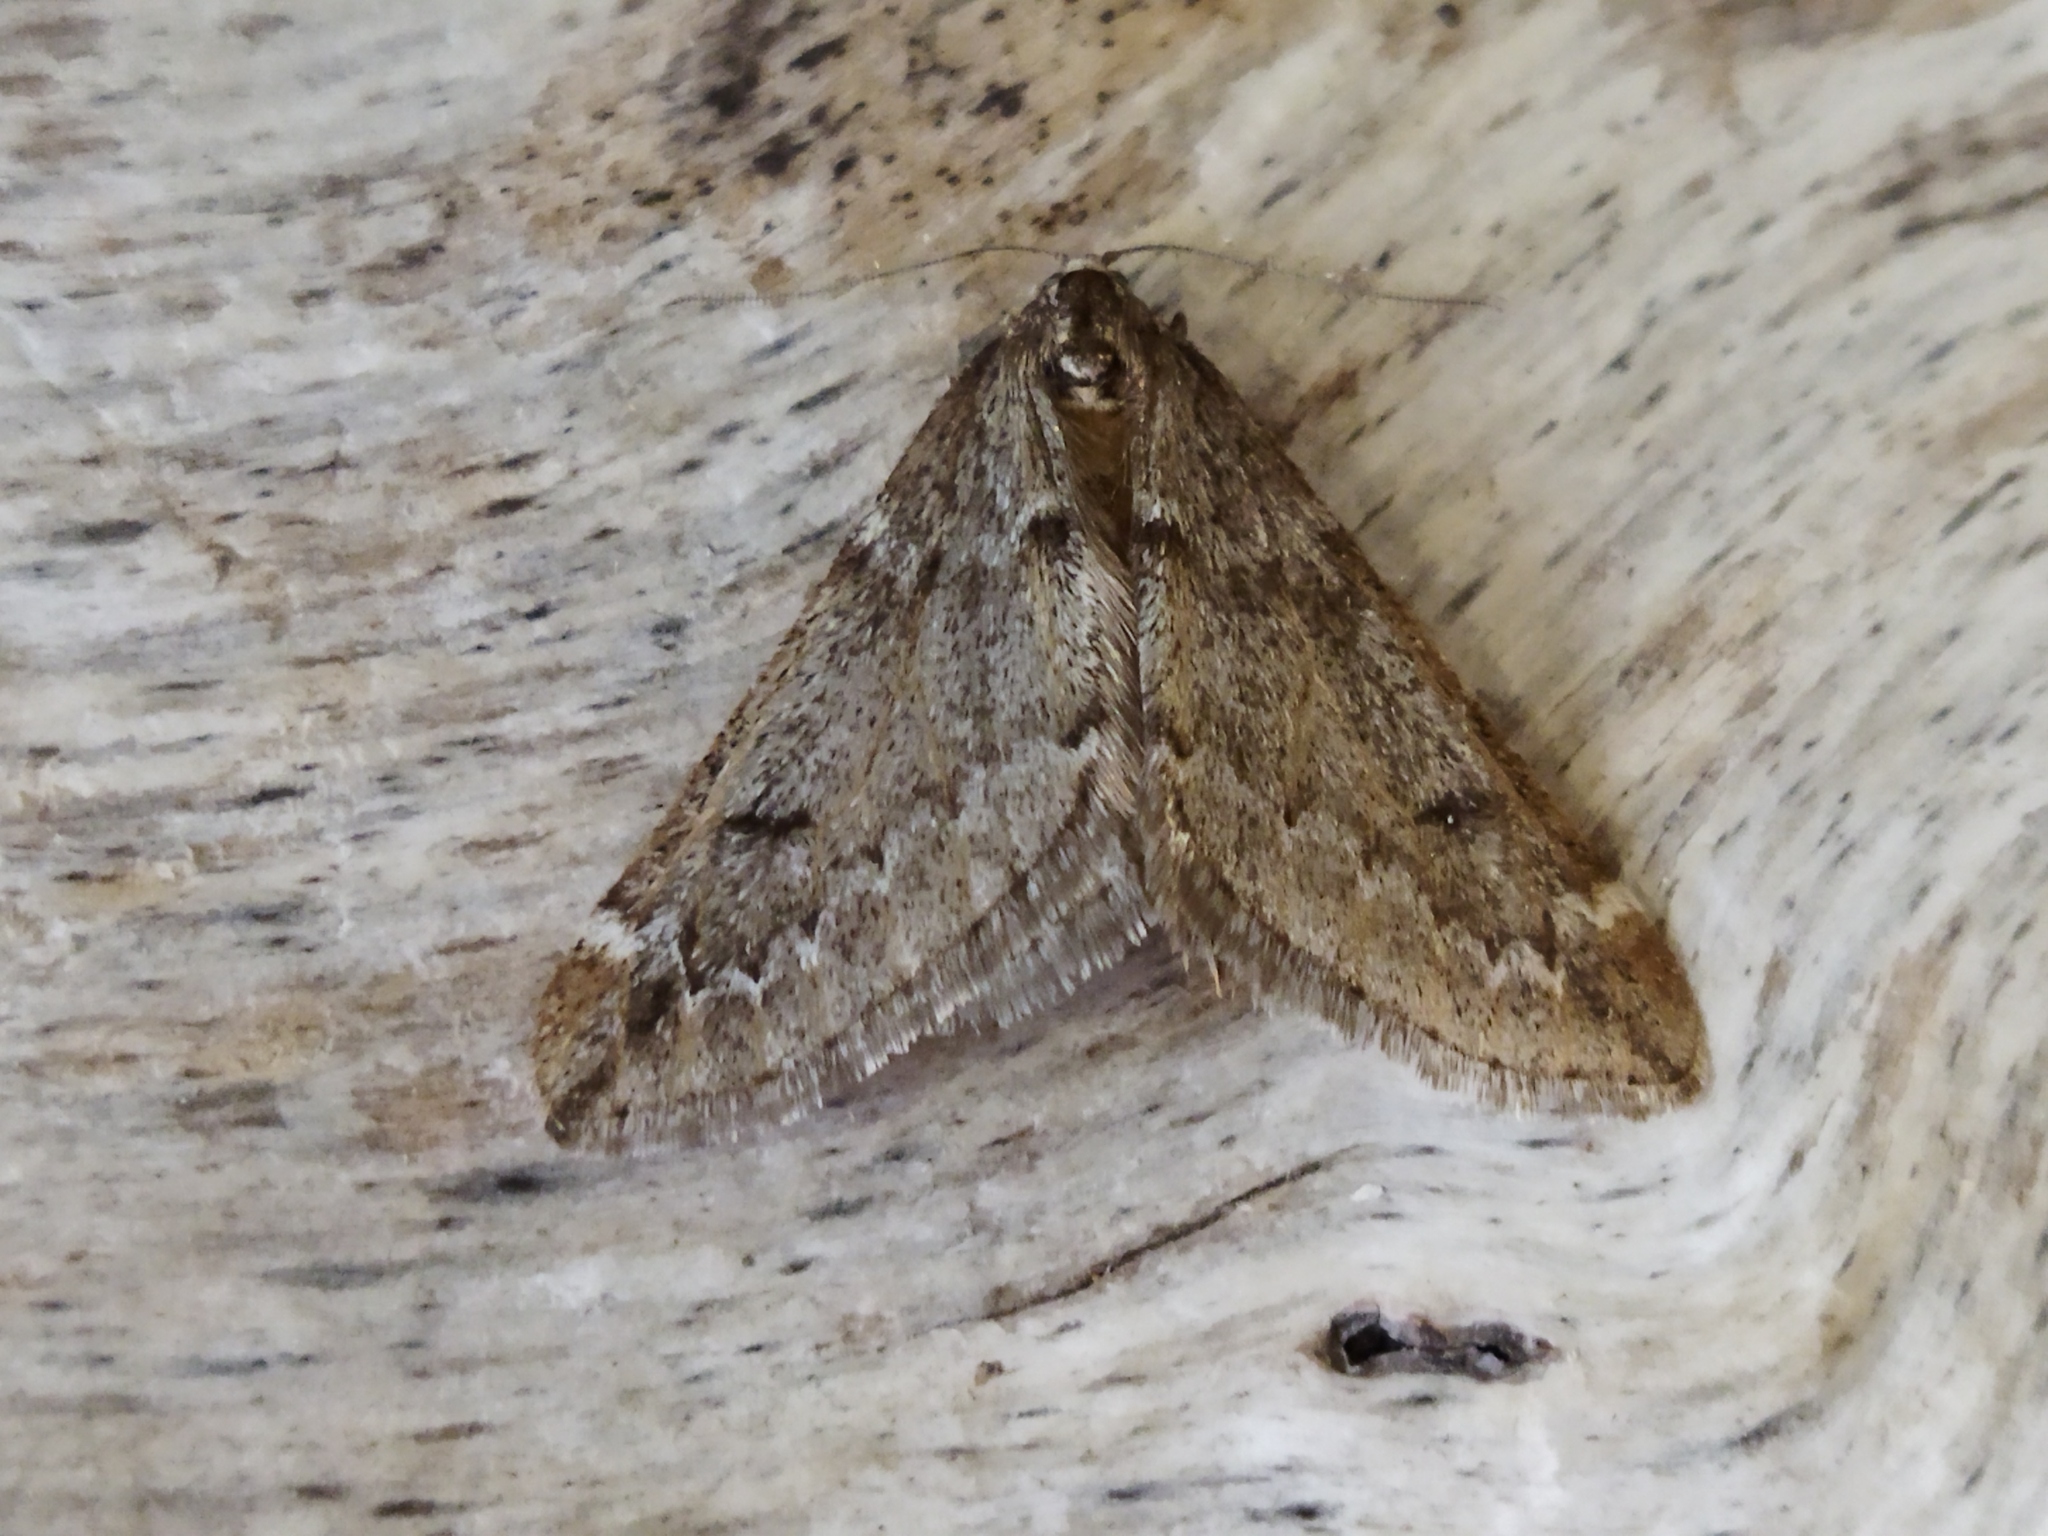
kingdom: Animalia
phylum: Arthropoda
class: Insecta
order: Lepidoptera
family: Geometridae
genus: Alsophila
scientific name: Alsophila aescularia
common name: March moth
